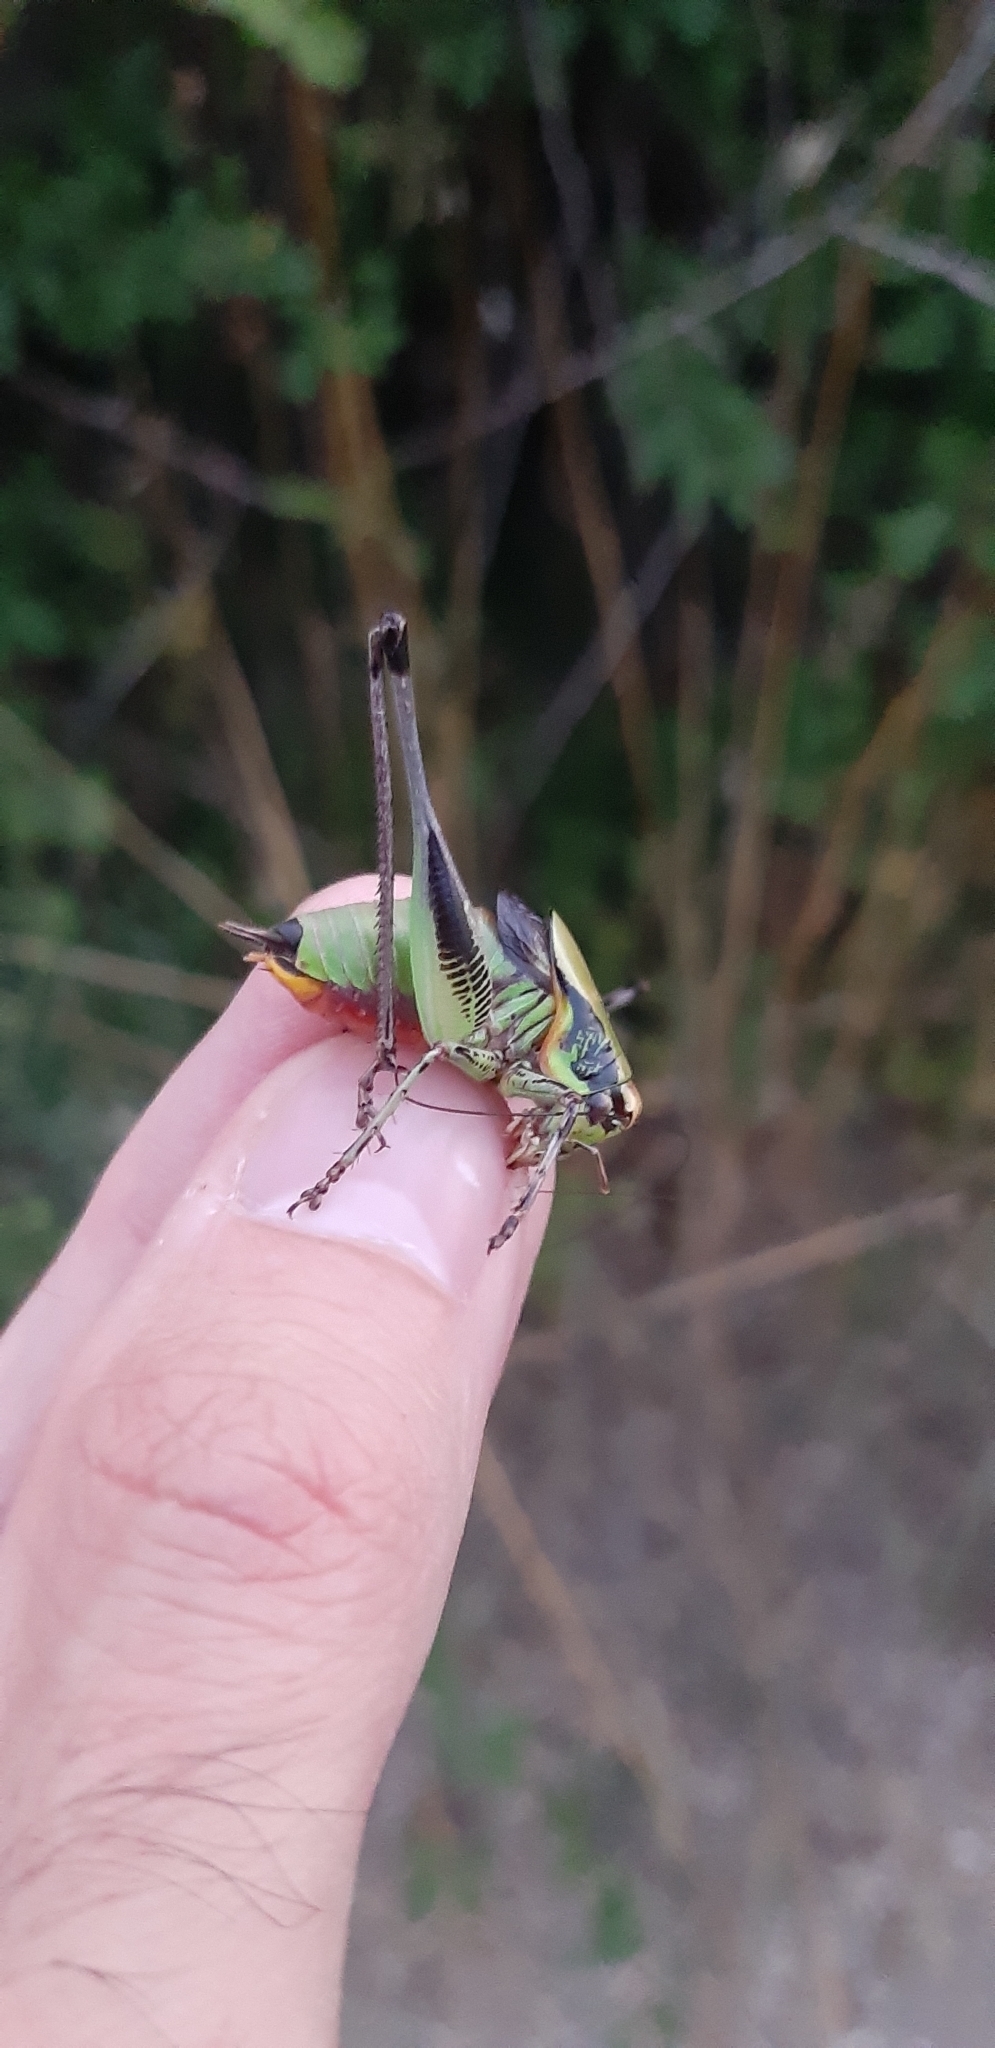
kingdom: Animalia
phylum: Arthropoda
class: Insecta
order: Orthoptera
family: Tettigoniidae
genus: Eupholidoptera
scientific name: Eupholidoptera magnifica
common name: Splendid marbled bush-cricket
